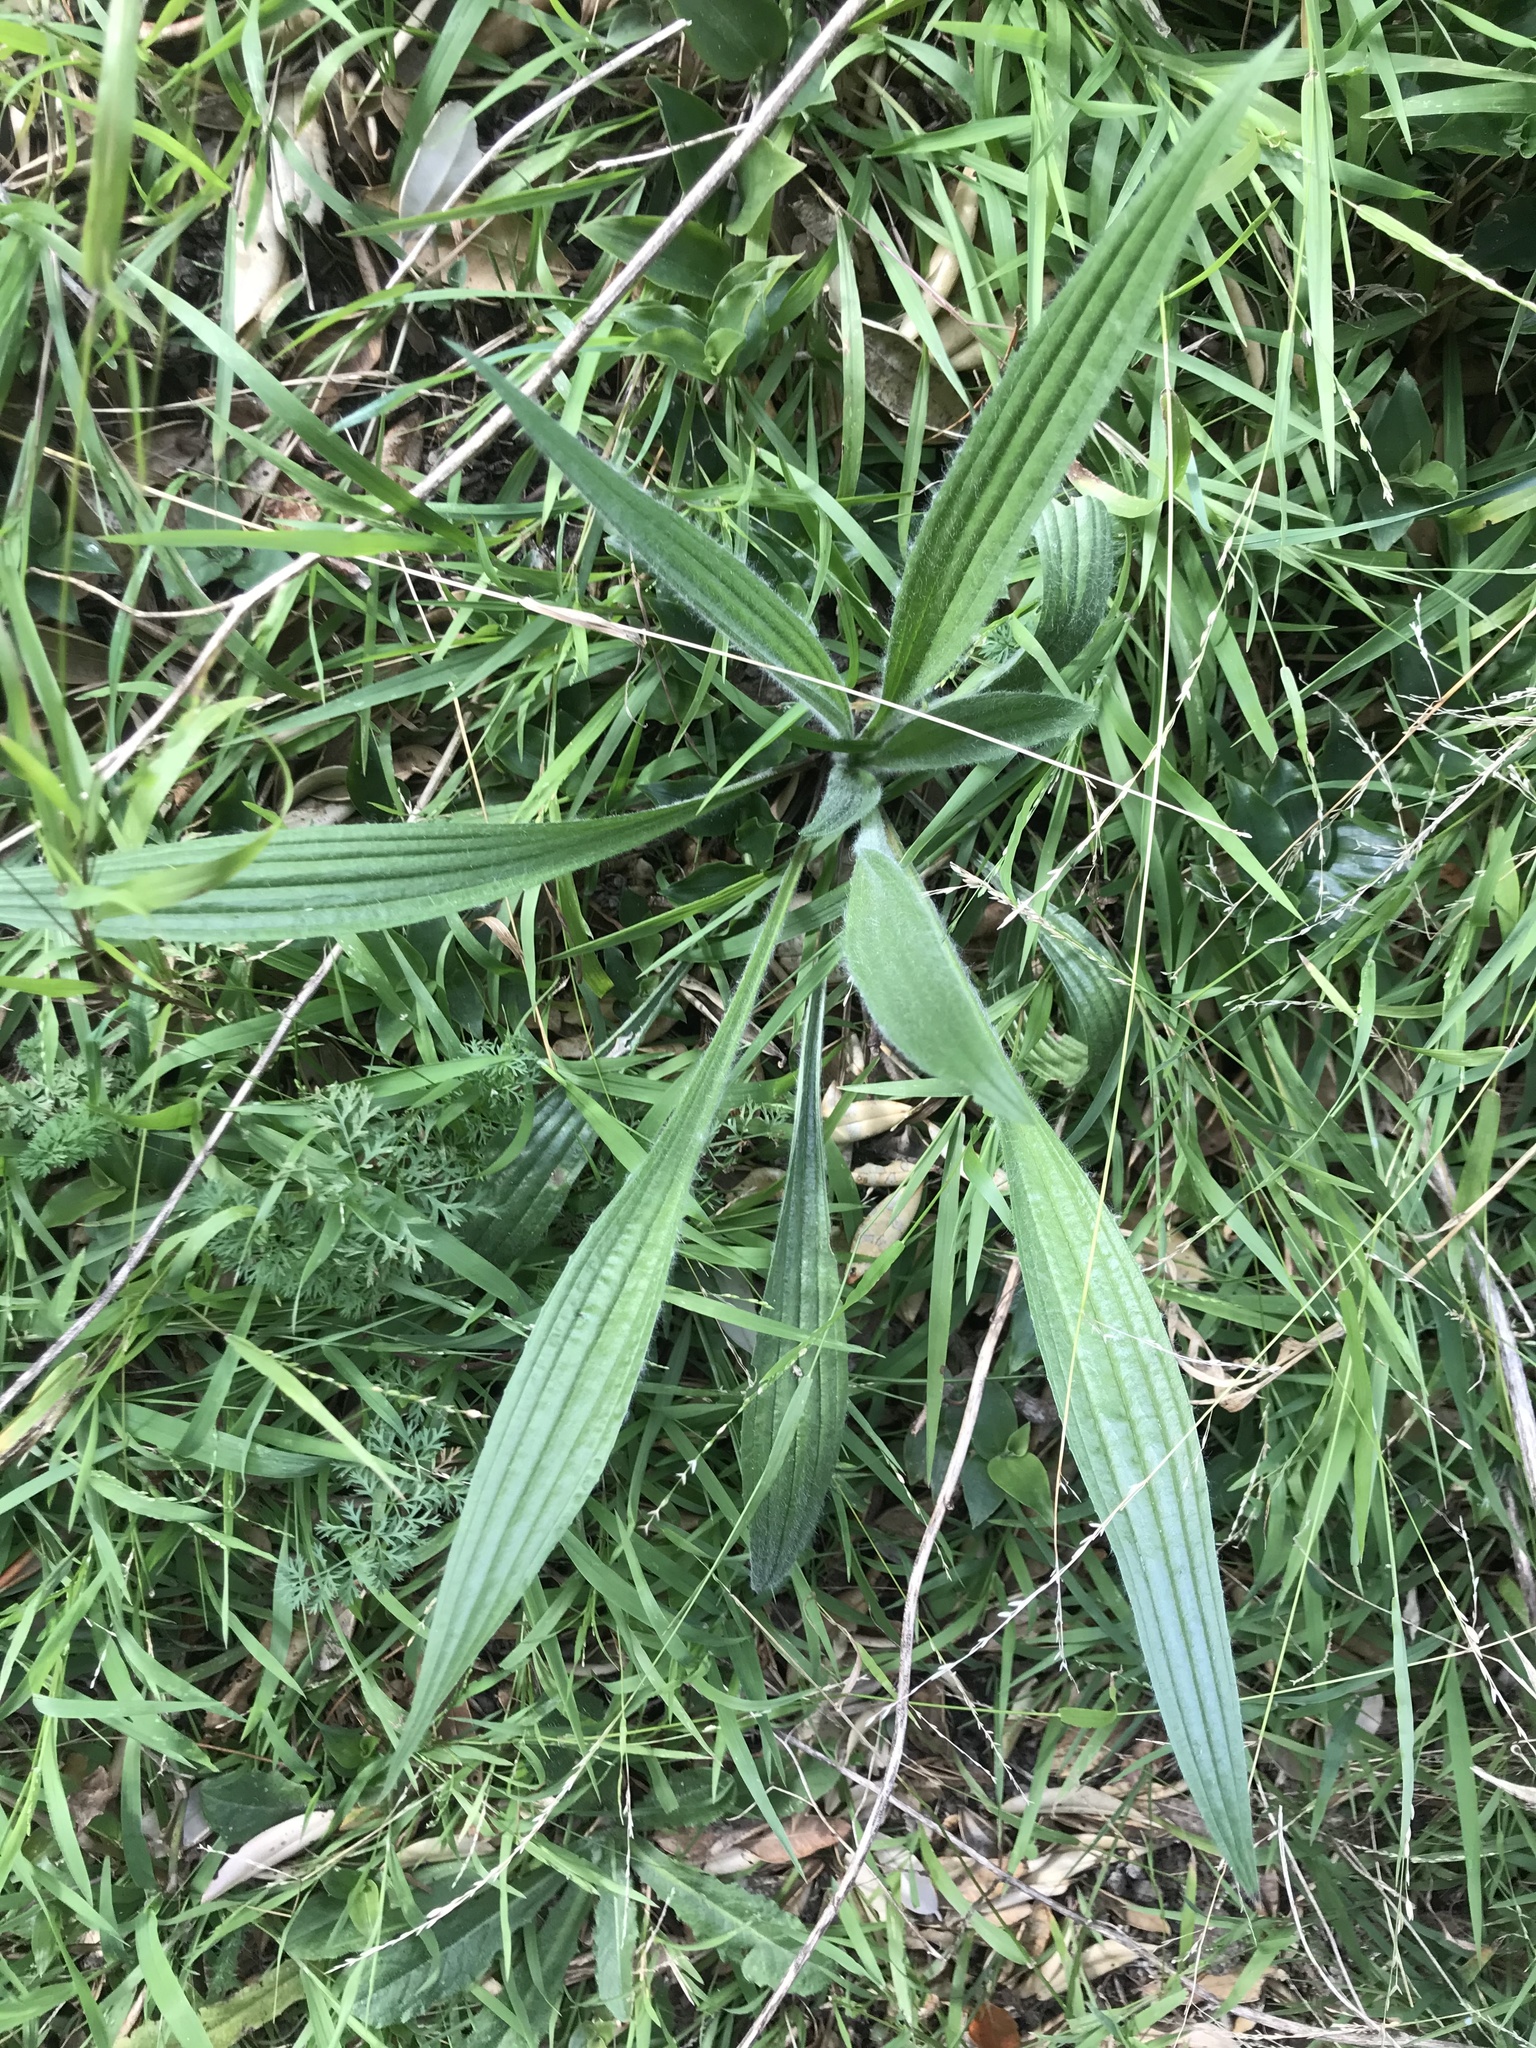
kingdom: Plantae
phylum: Tracheophyta
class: Magnoliopsida
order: Lamiales
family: Plantaginaceae
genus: Plantago
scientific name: Plantago lanceolata
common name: Ribwort plantain
